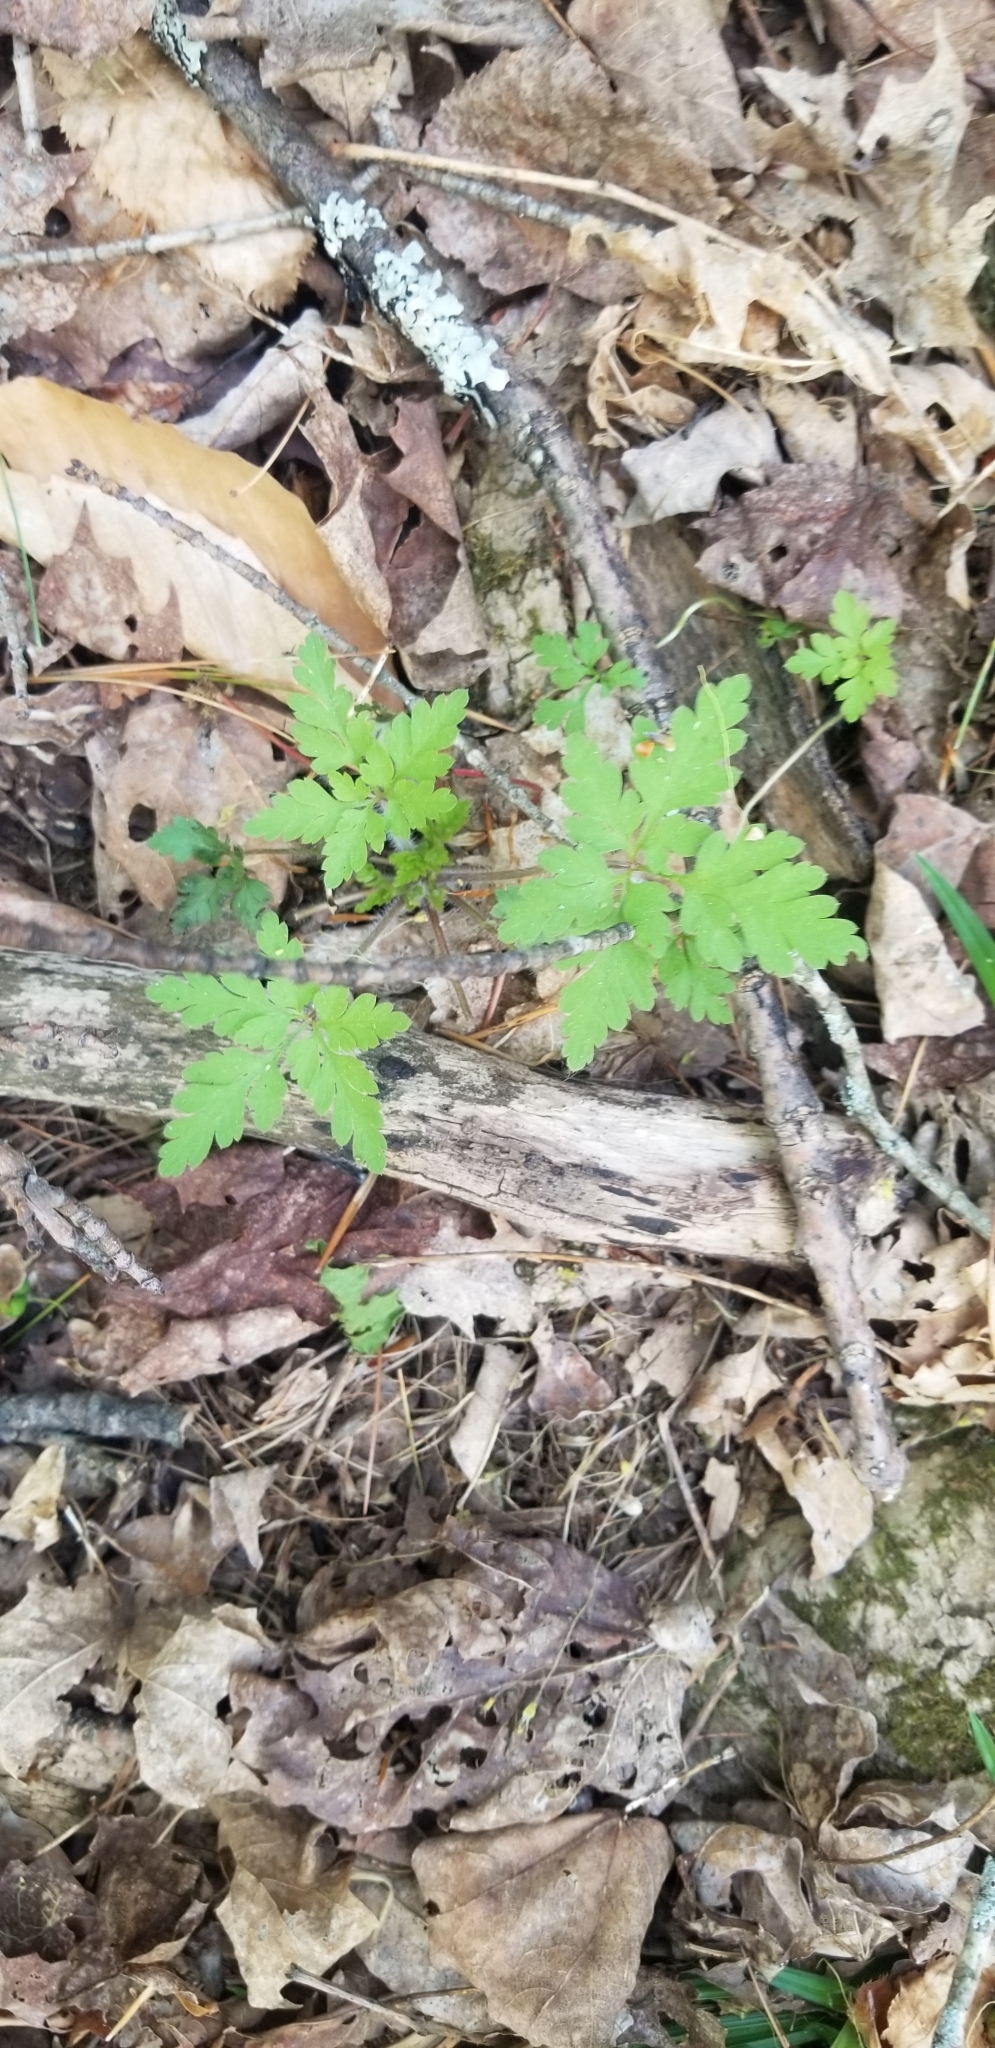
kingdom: Plantae
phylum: Tracheophyta
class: Magnoliopsida
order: Geraniales
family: Geraniaceae
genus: Geranium
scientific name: Geranium robertianum
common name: Herb-robert
